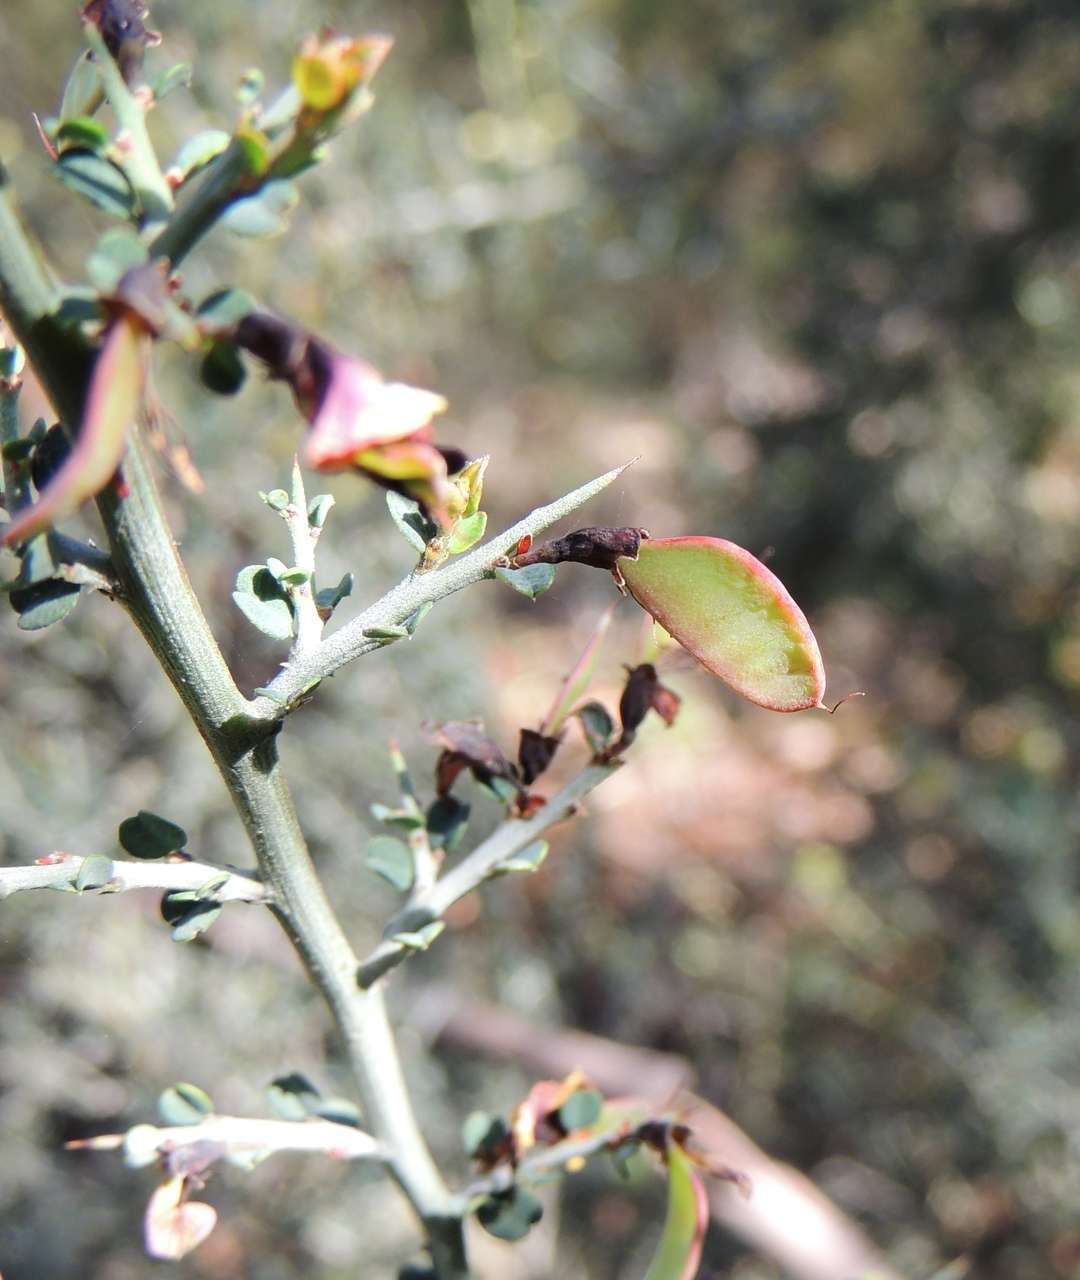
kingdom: Plantae
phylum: Tracheophyta
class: Magnoliopsida
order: Fabales
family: Fabaceae
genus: Bossiaea
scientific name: Bossiaea obcordata
